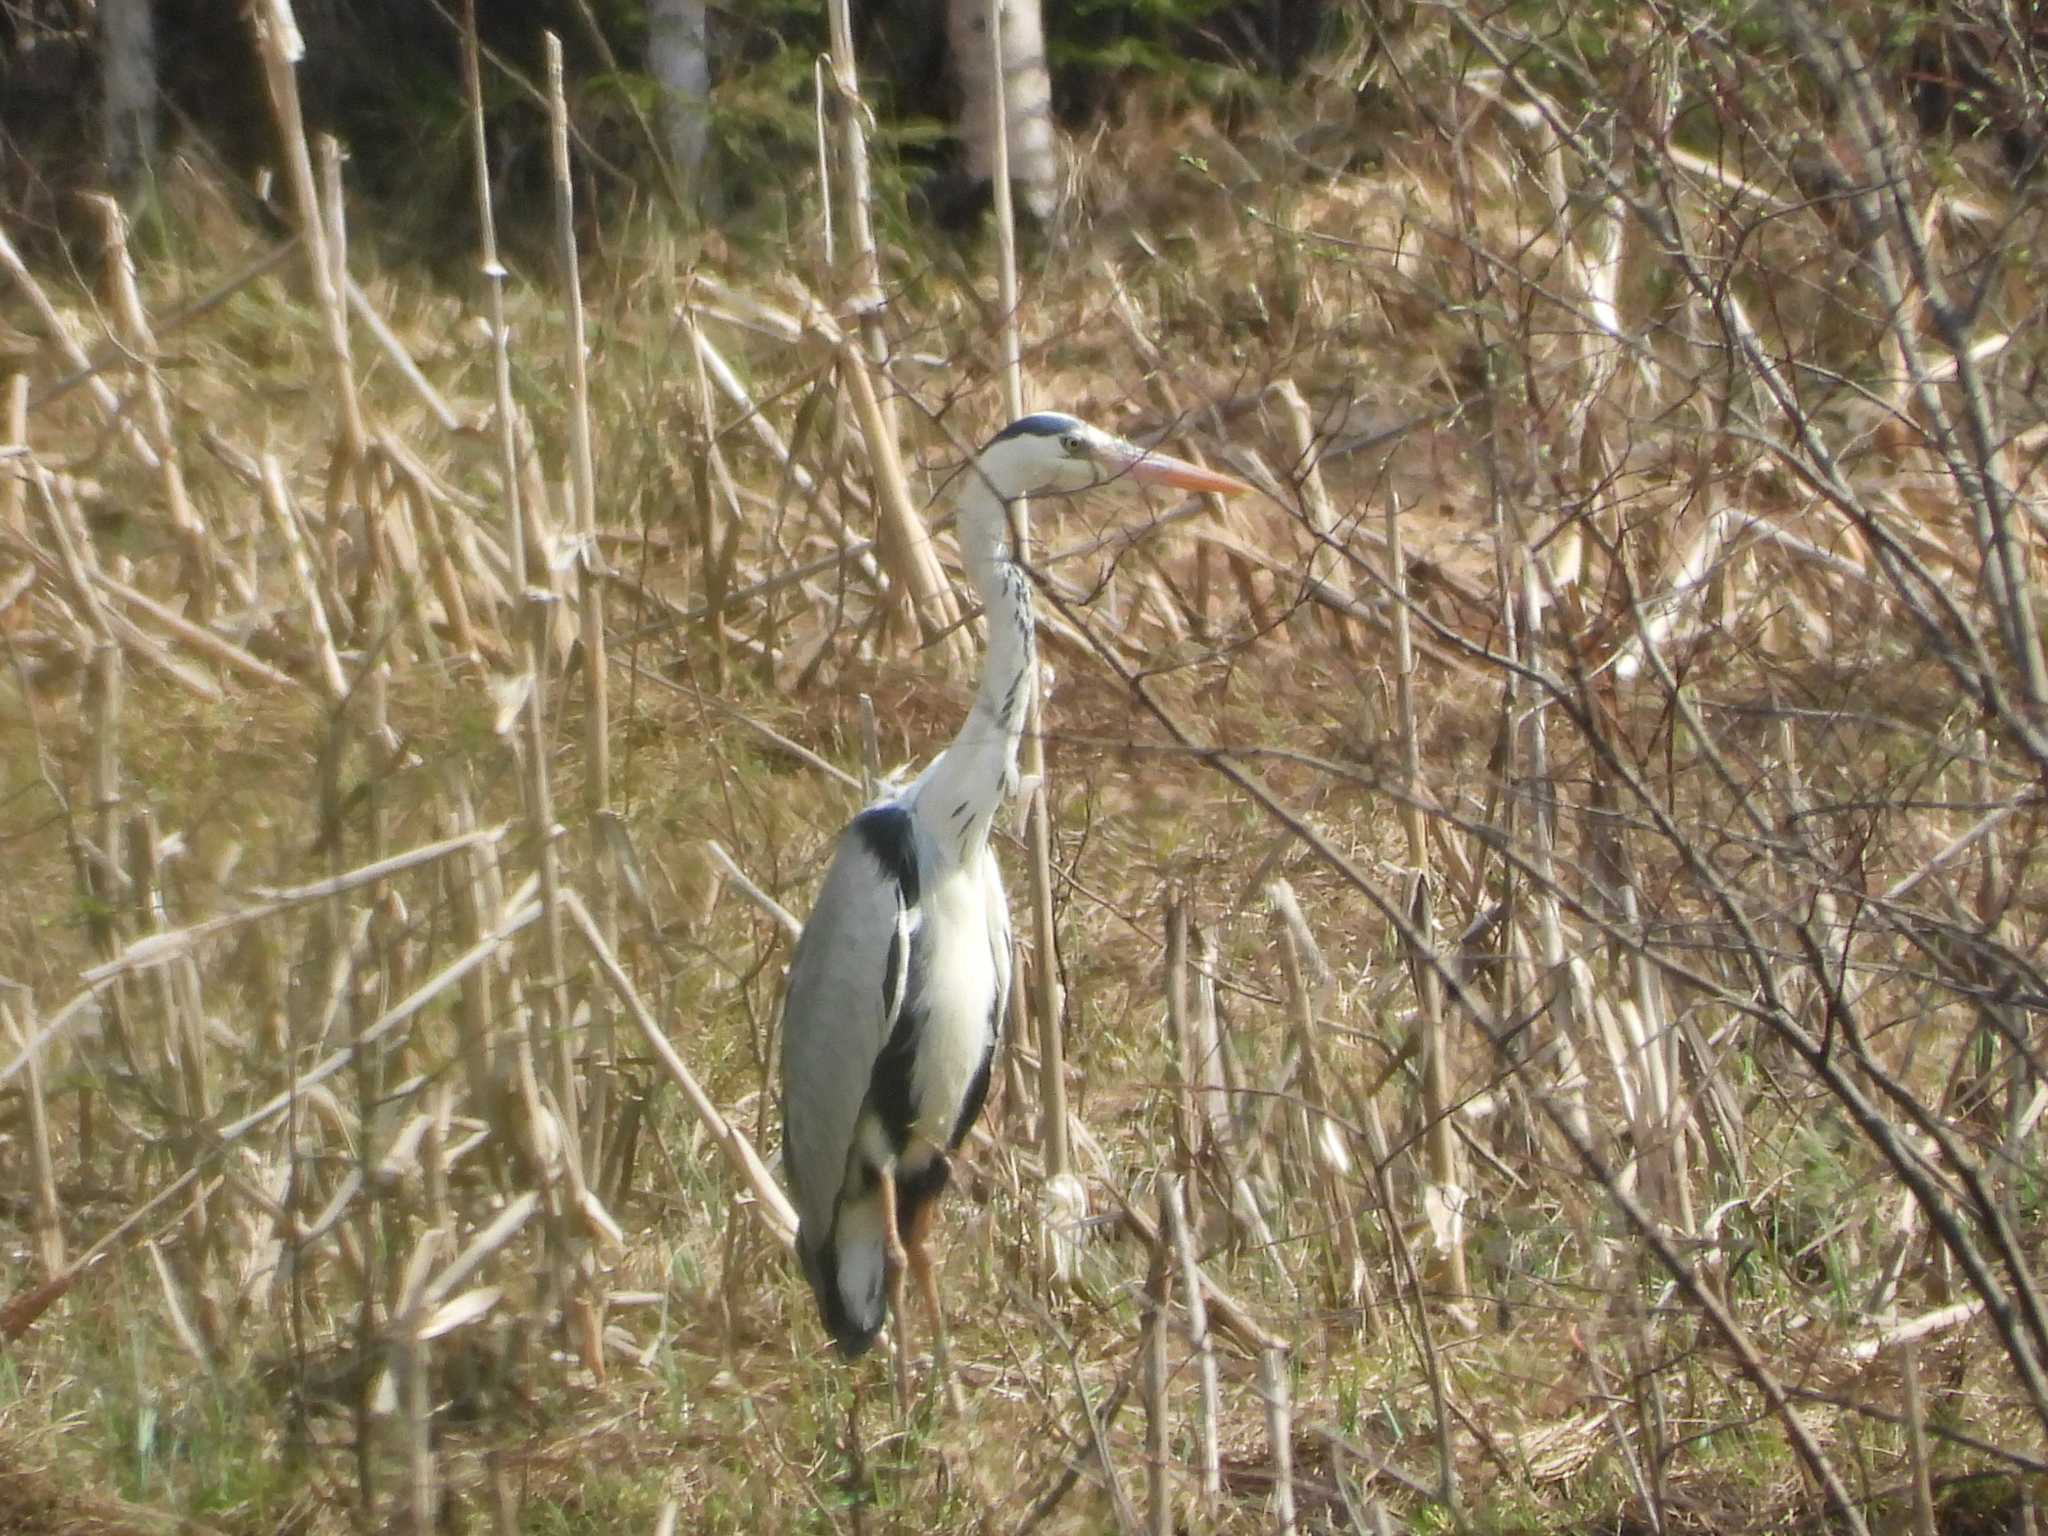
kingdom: Animalia
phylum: Chordata
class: Aves
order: Pelecaniformes
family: Ardeidae
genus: Ardea
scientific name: Ardea cinerea
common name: Grey heron
